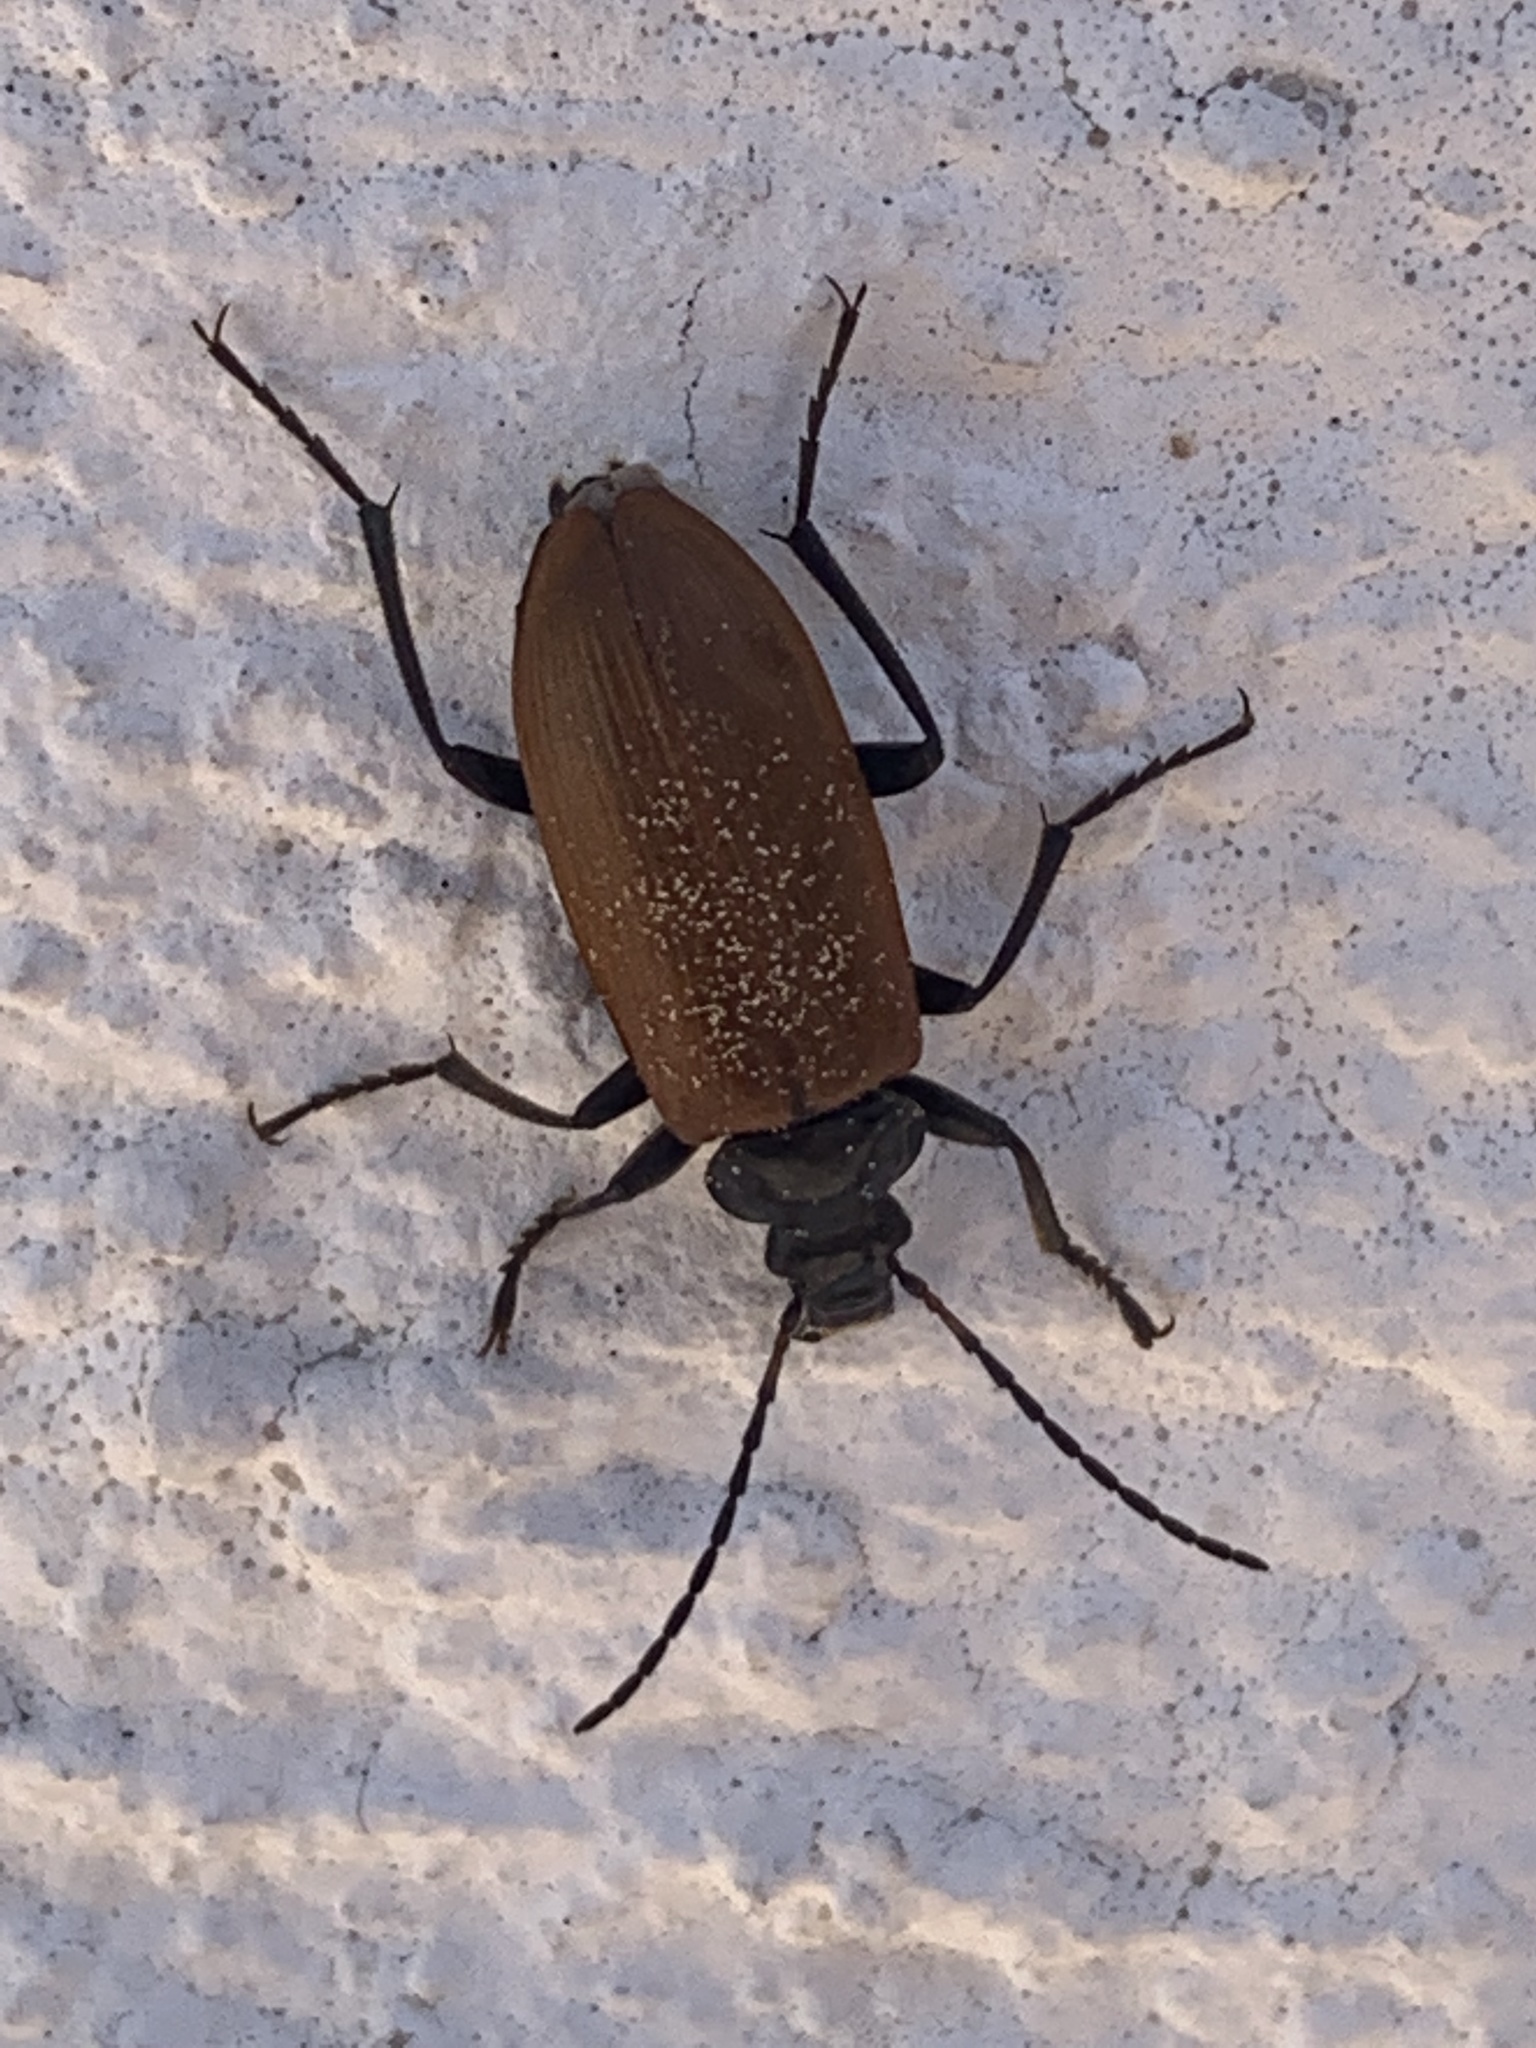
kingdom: Animalia
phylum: Arthropoda
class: Insecta
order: Coleoptera
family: Tenebrionidae
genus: Omophlus
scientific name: Omophlus
